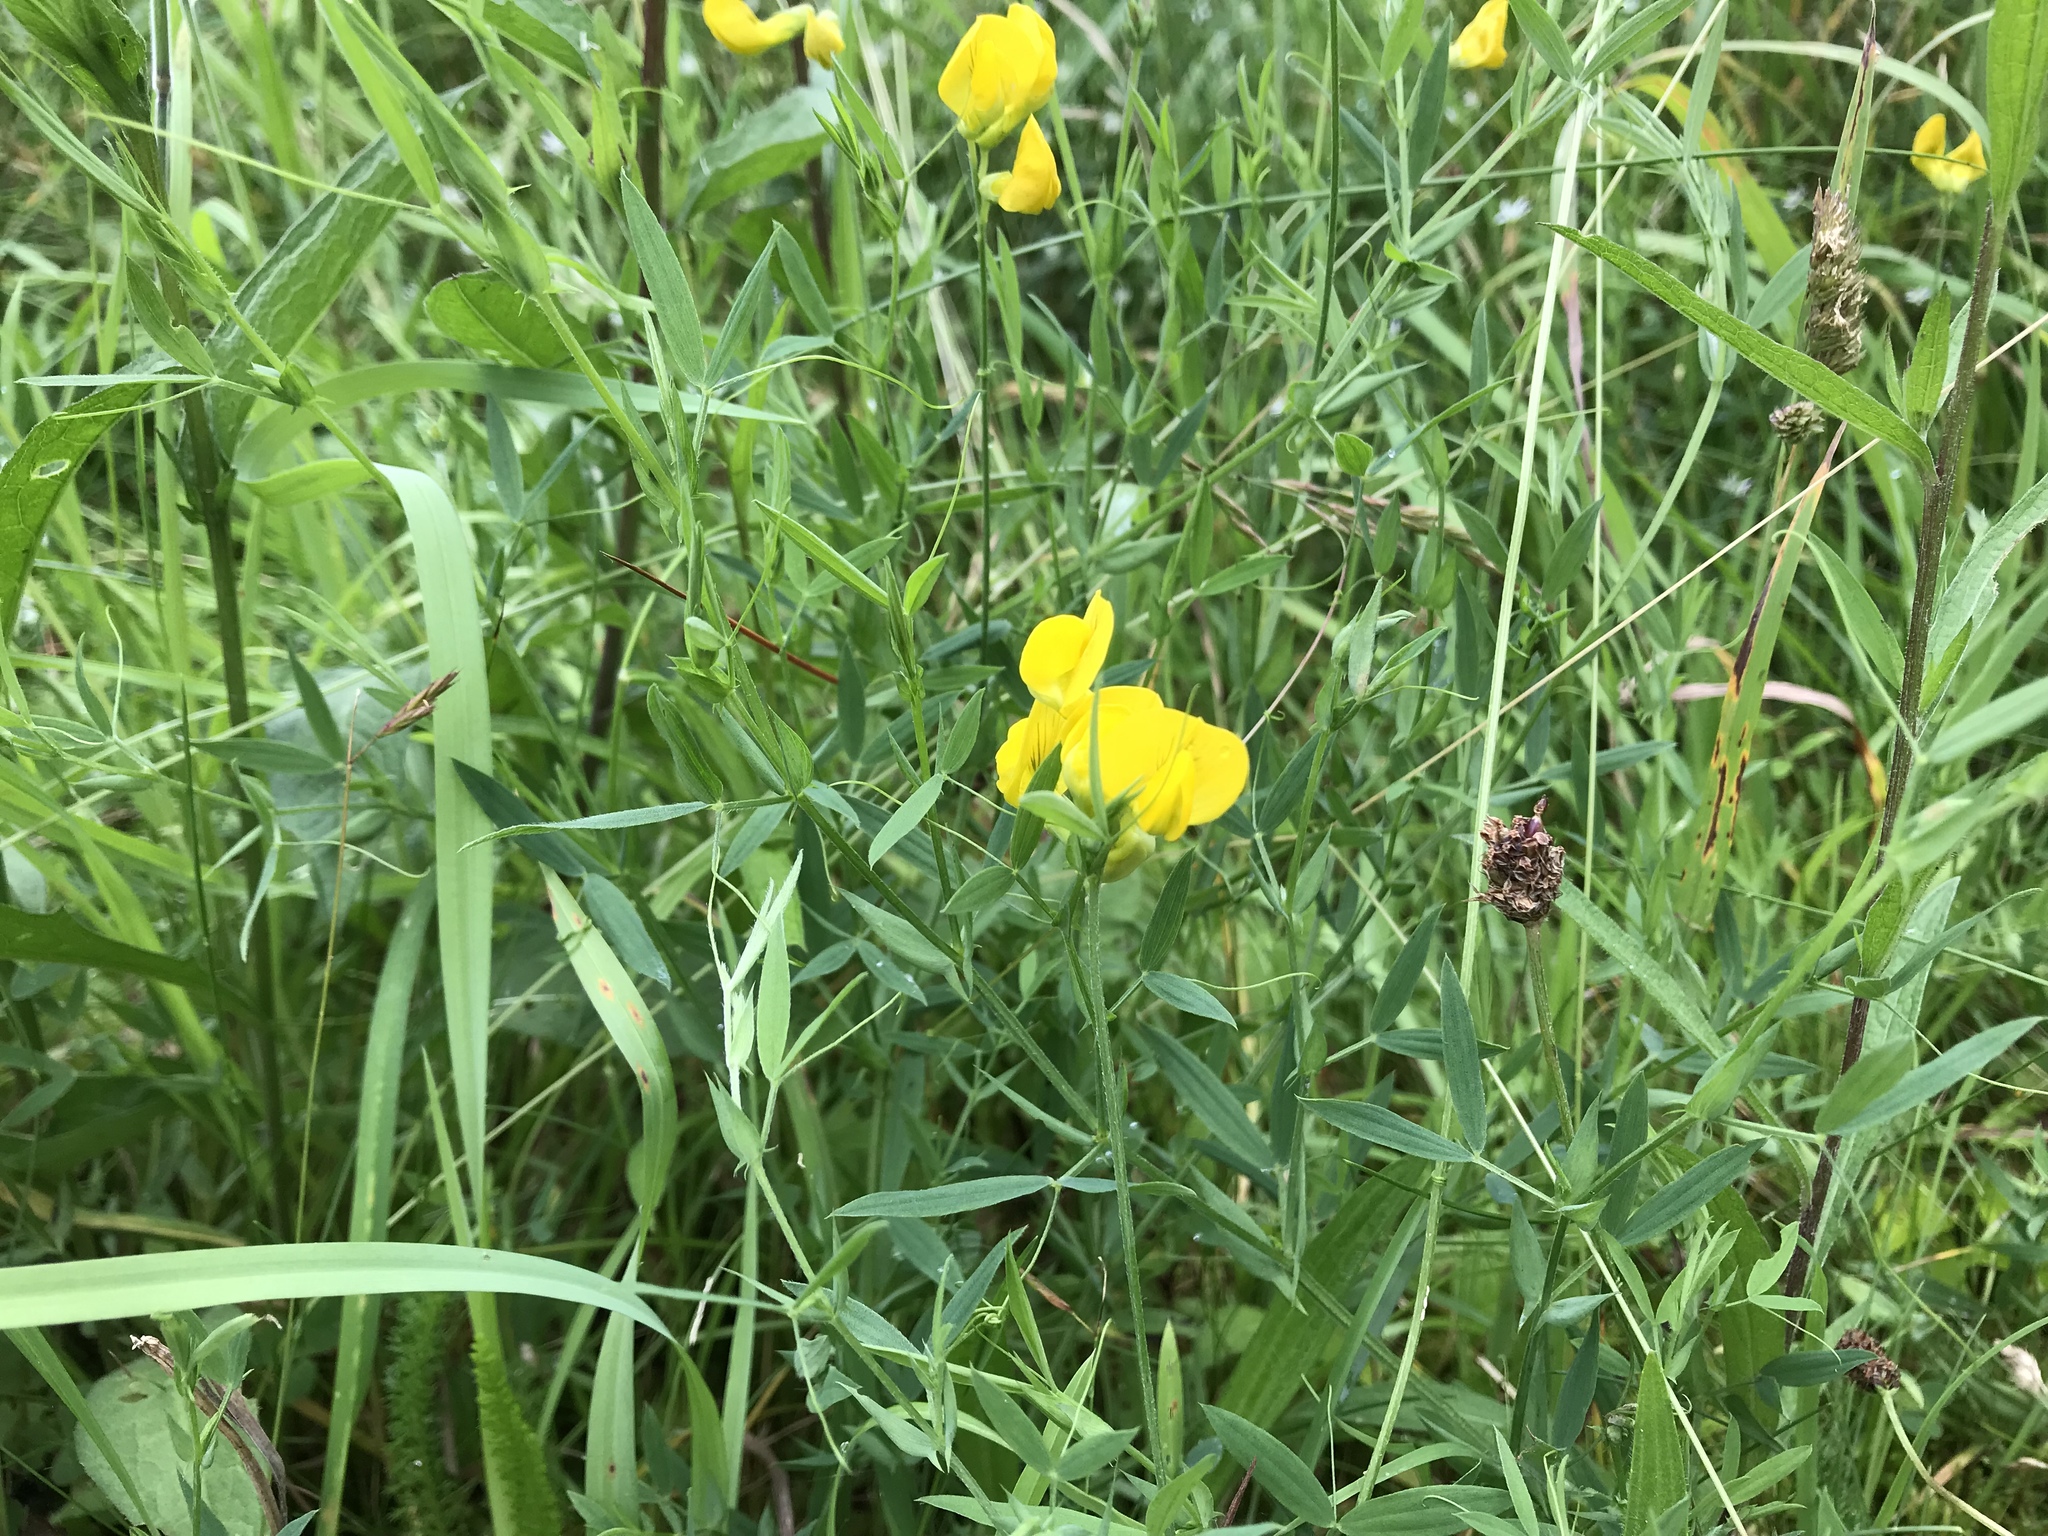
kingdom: Plantae
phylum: Tracheophyta
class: Magnoliopsida
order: Fabales
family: Fabaceae
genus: Lathyrus
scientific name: Lathyrus pratensis
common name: Meadow vetchling
